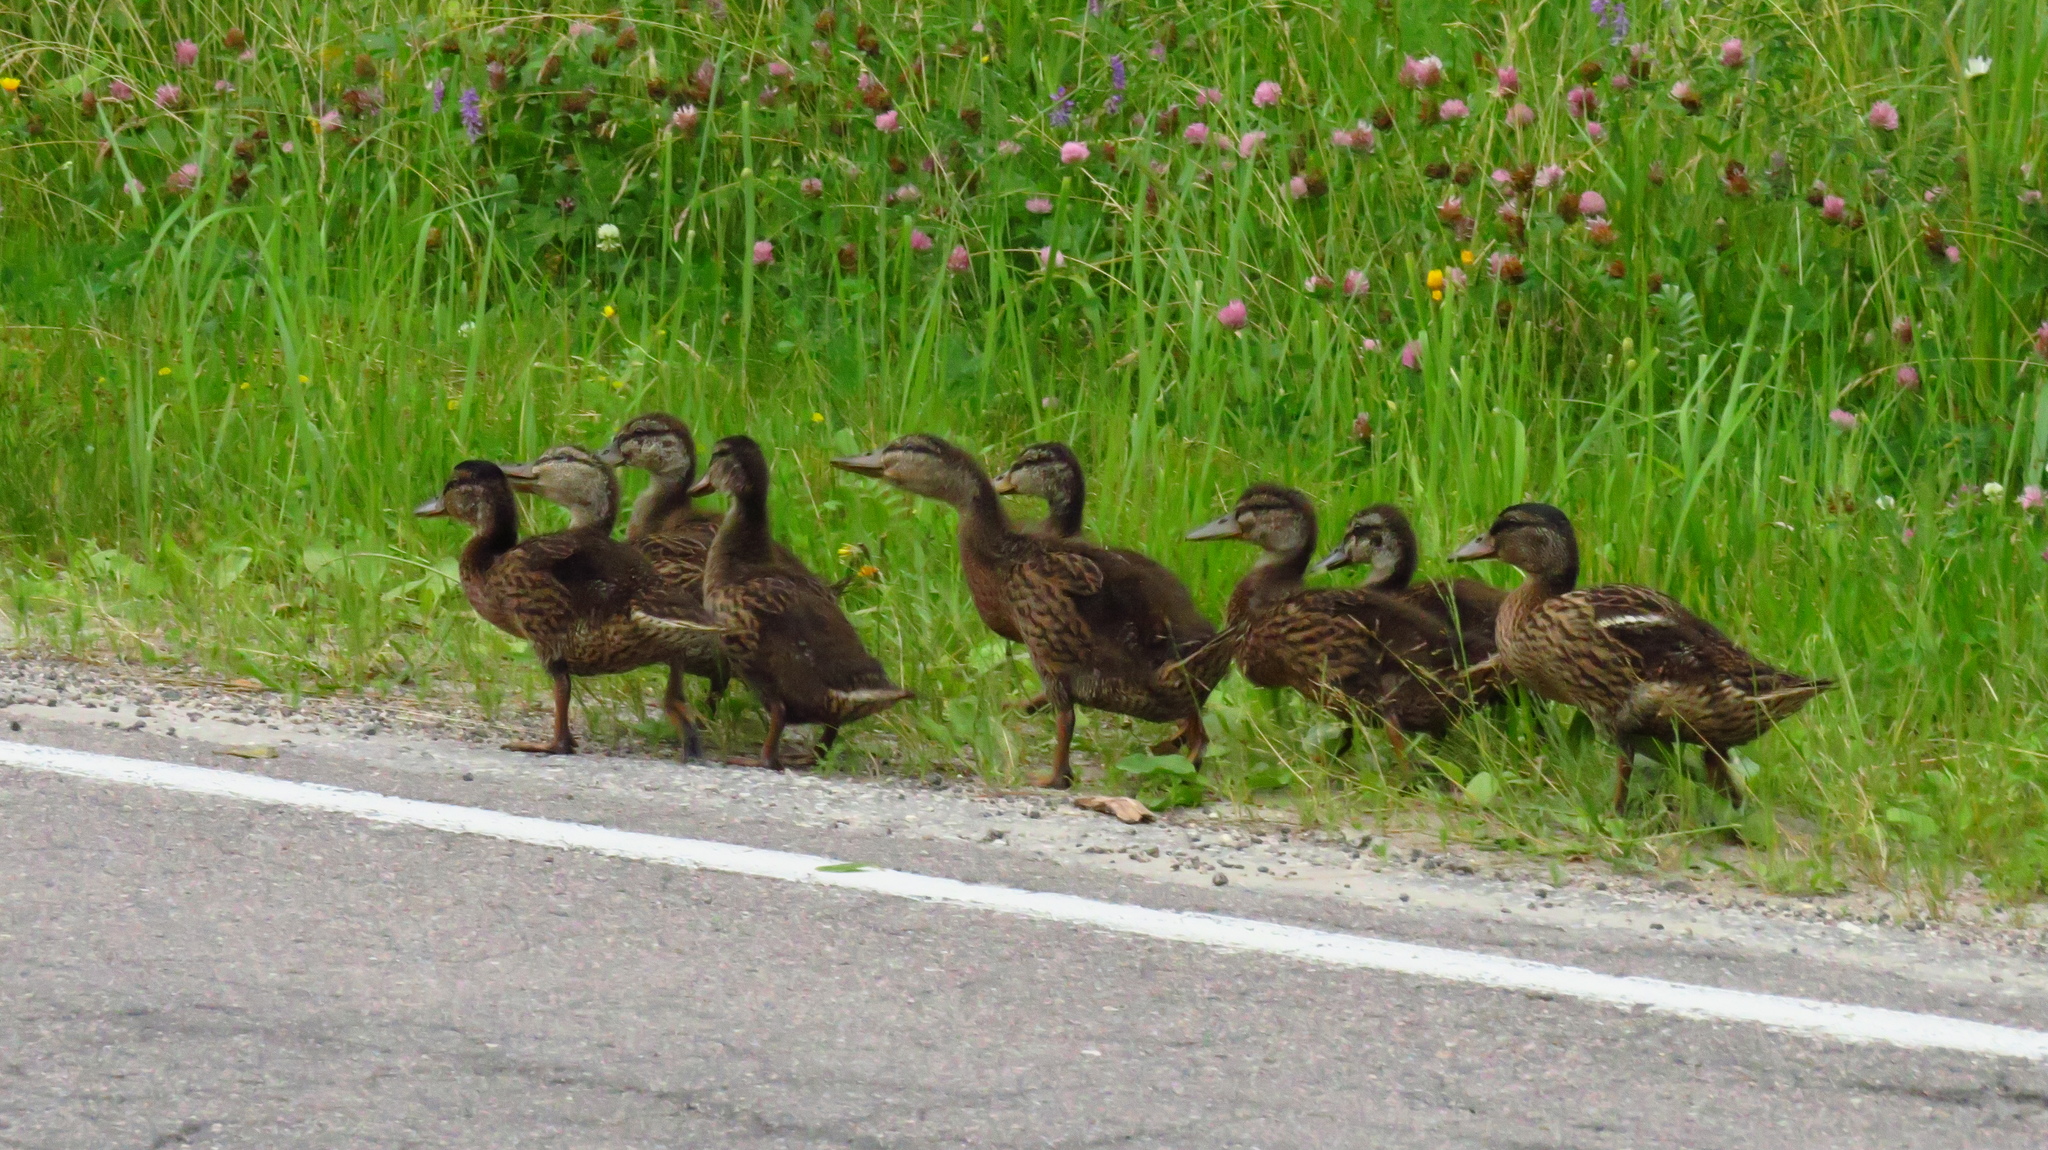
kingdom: Animalia
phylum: Chordata
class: Aves
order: Anseriformes
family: Anatidae
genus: Anas
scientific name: Anas platyrhynchos
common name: Mallard
